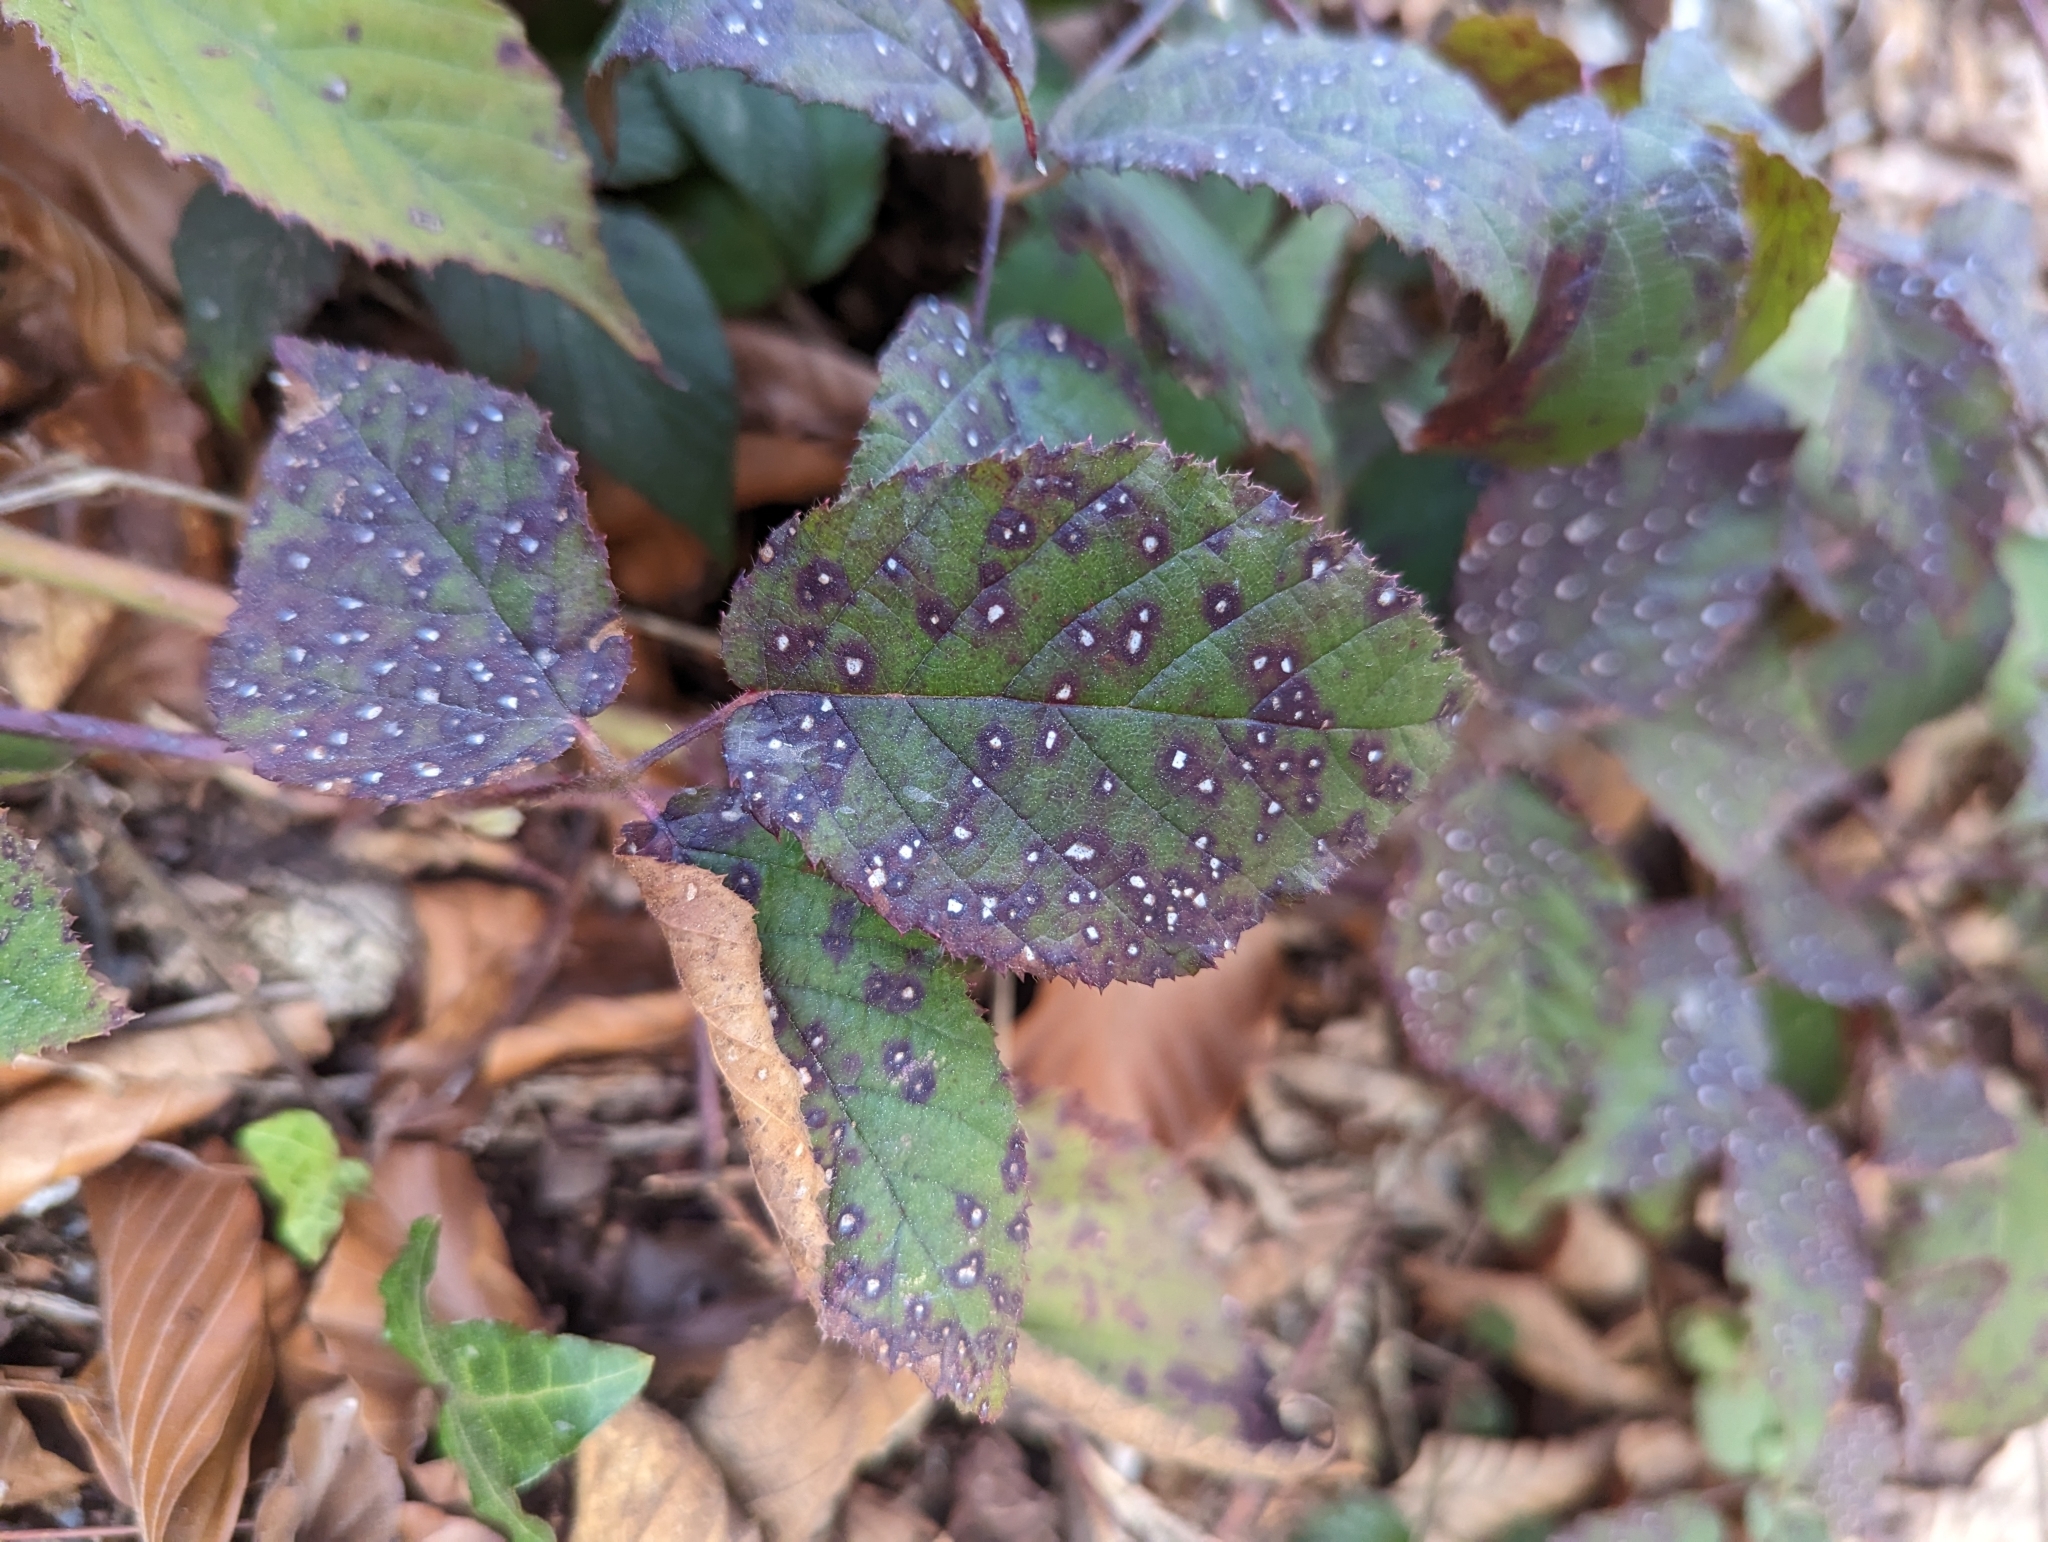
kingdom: Fungi
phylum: Basidiomycota
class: Pucciniomycetes
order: Pucciniales
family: Phragmidiaceae
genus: Phragmidium
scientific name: Phragmidium violaceum
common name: Violet bramble rust
